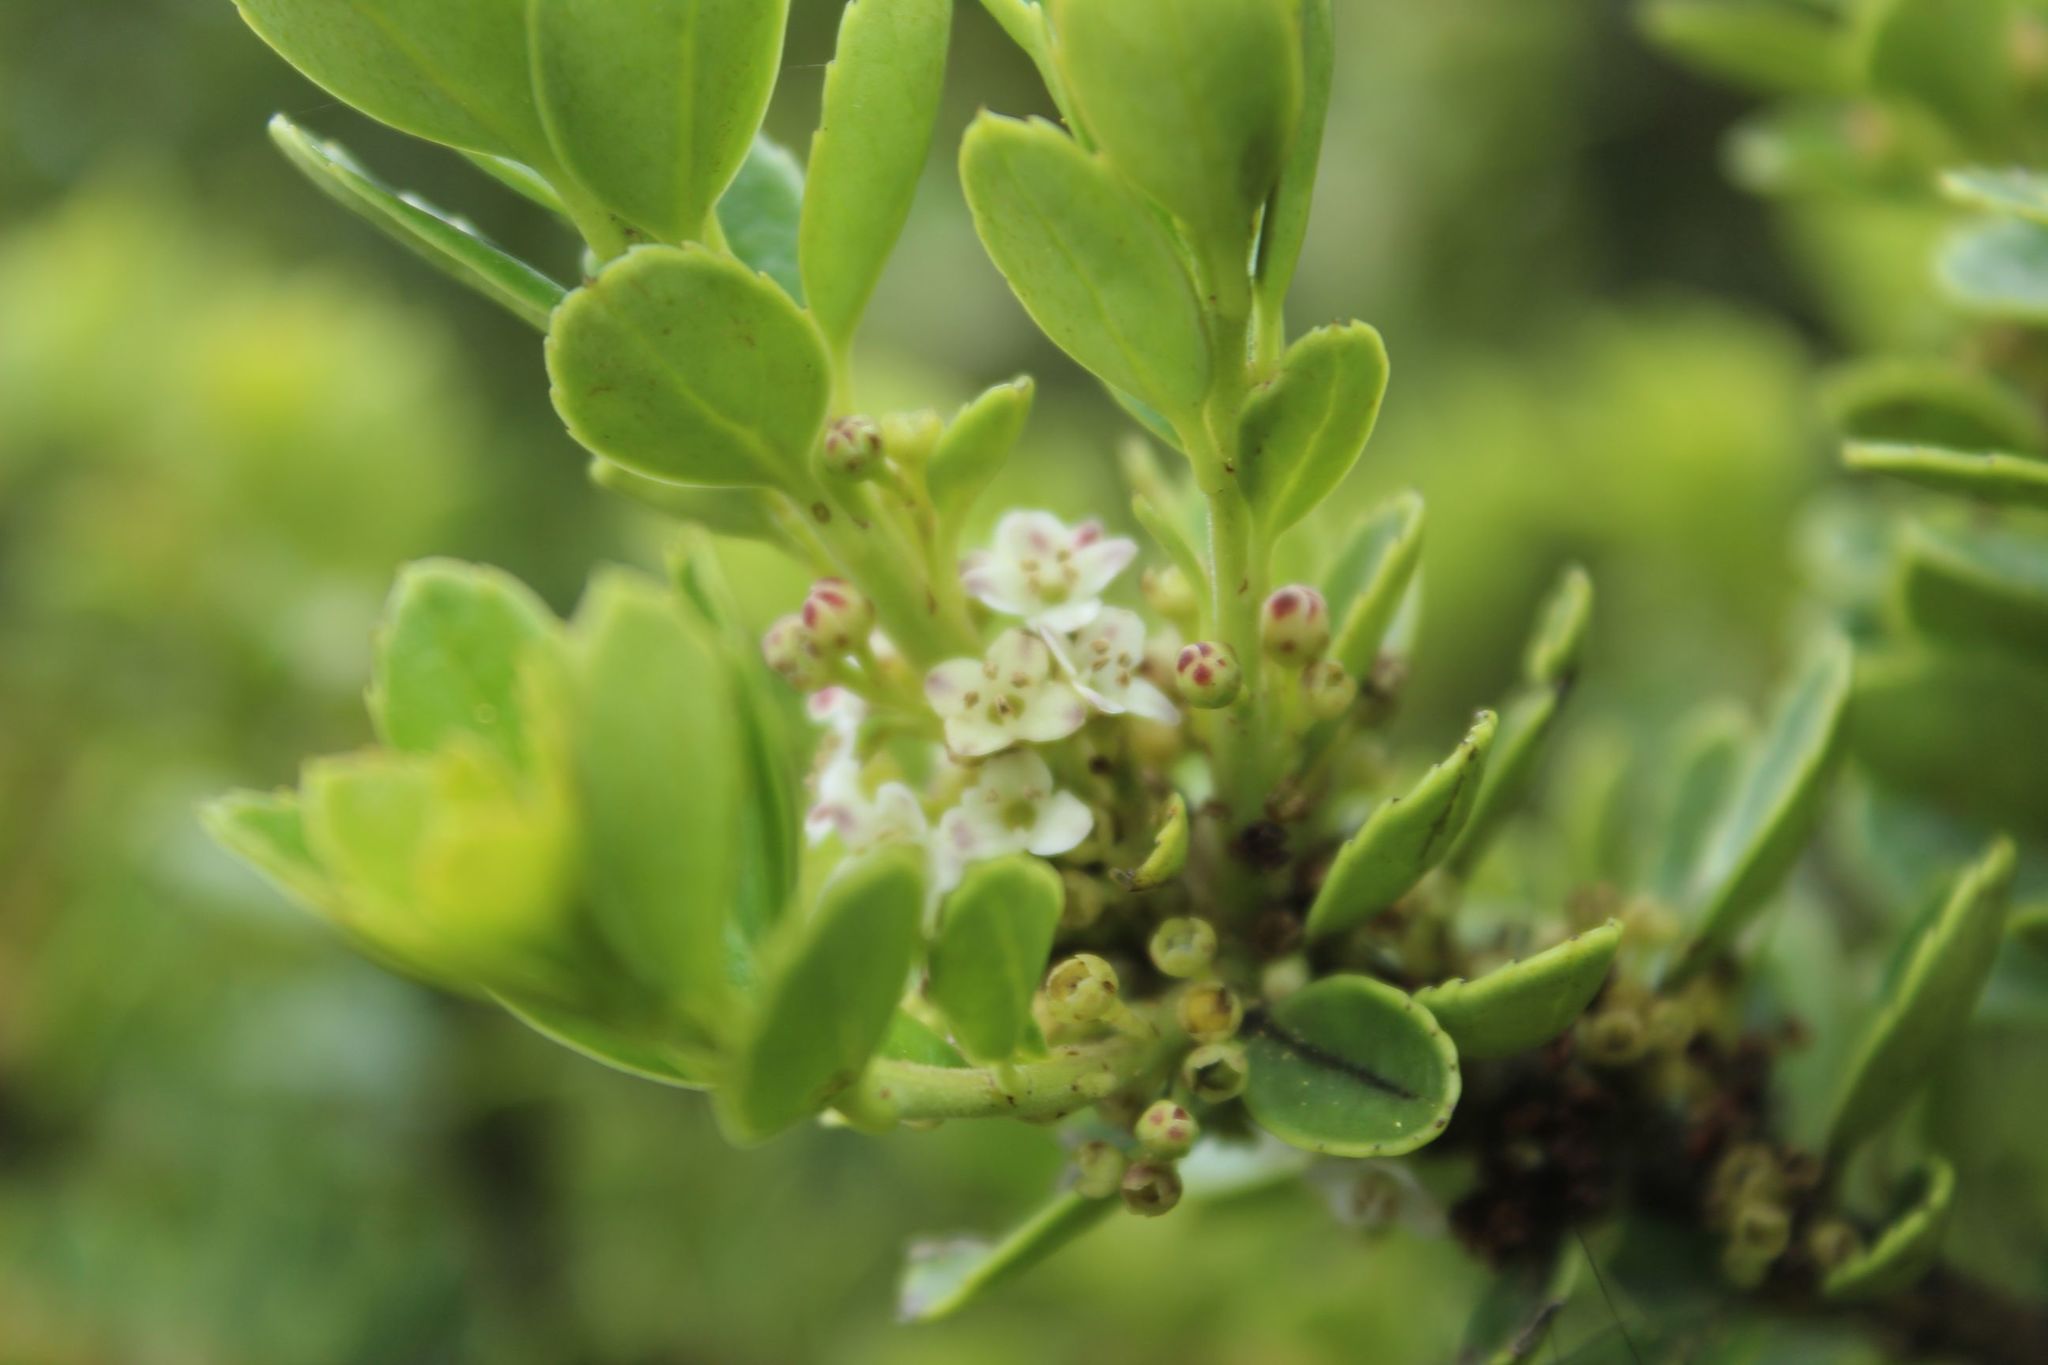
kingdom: Plantae
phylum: Tracheophyta
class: Magnoliopsida
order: Aquifoliales
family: Aquifoliaceae
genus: Ilex
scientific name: Ilex microphylla
